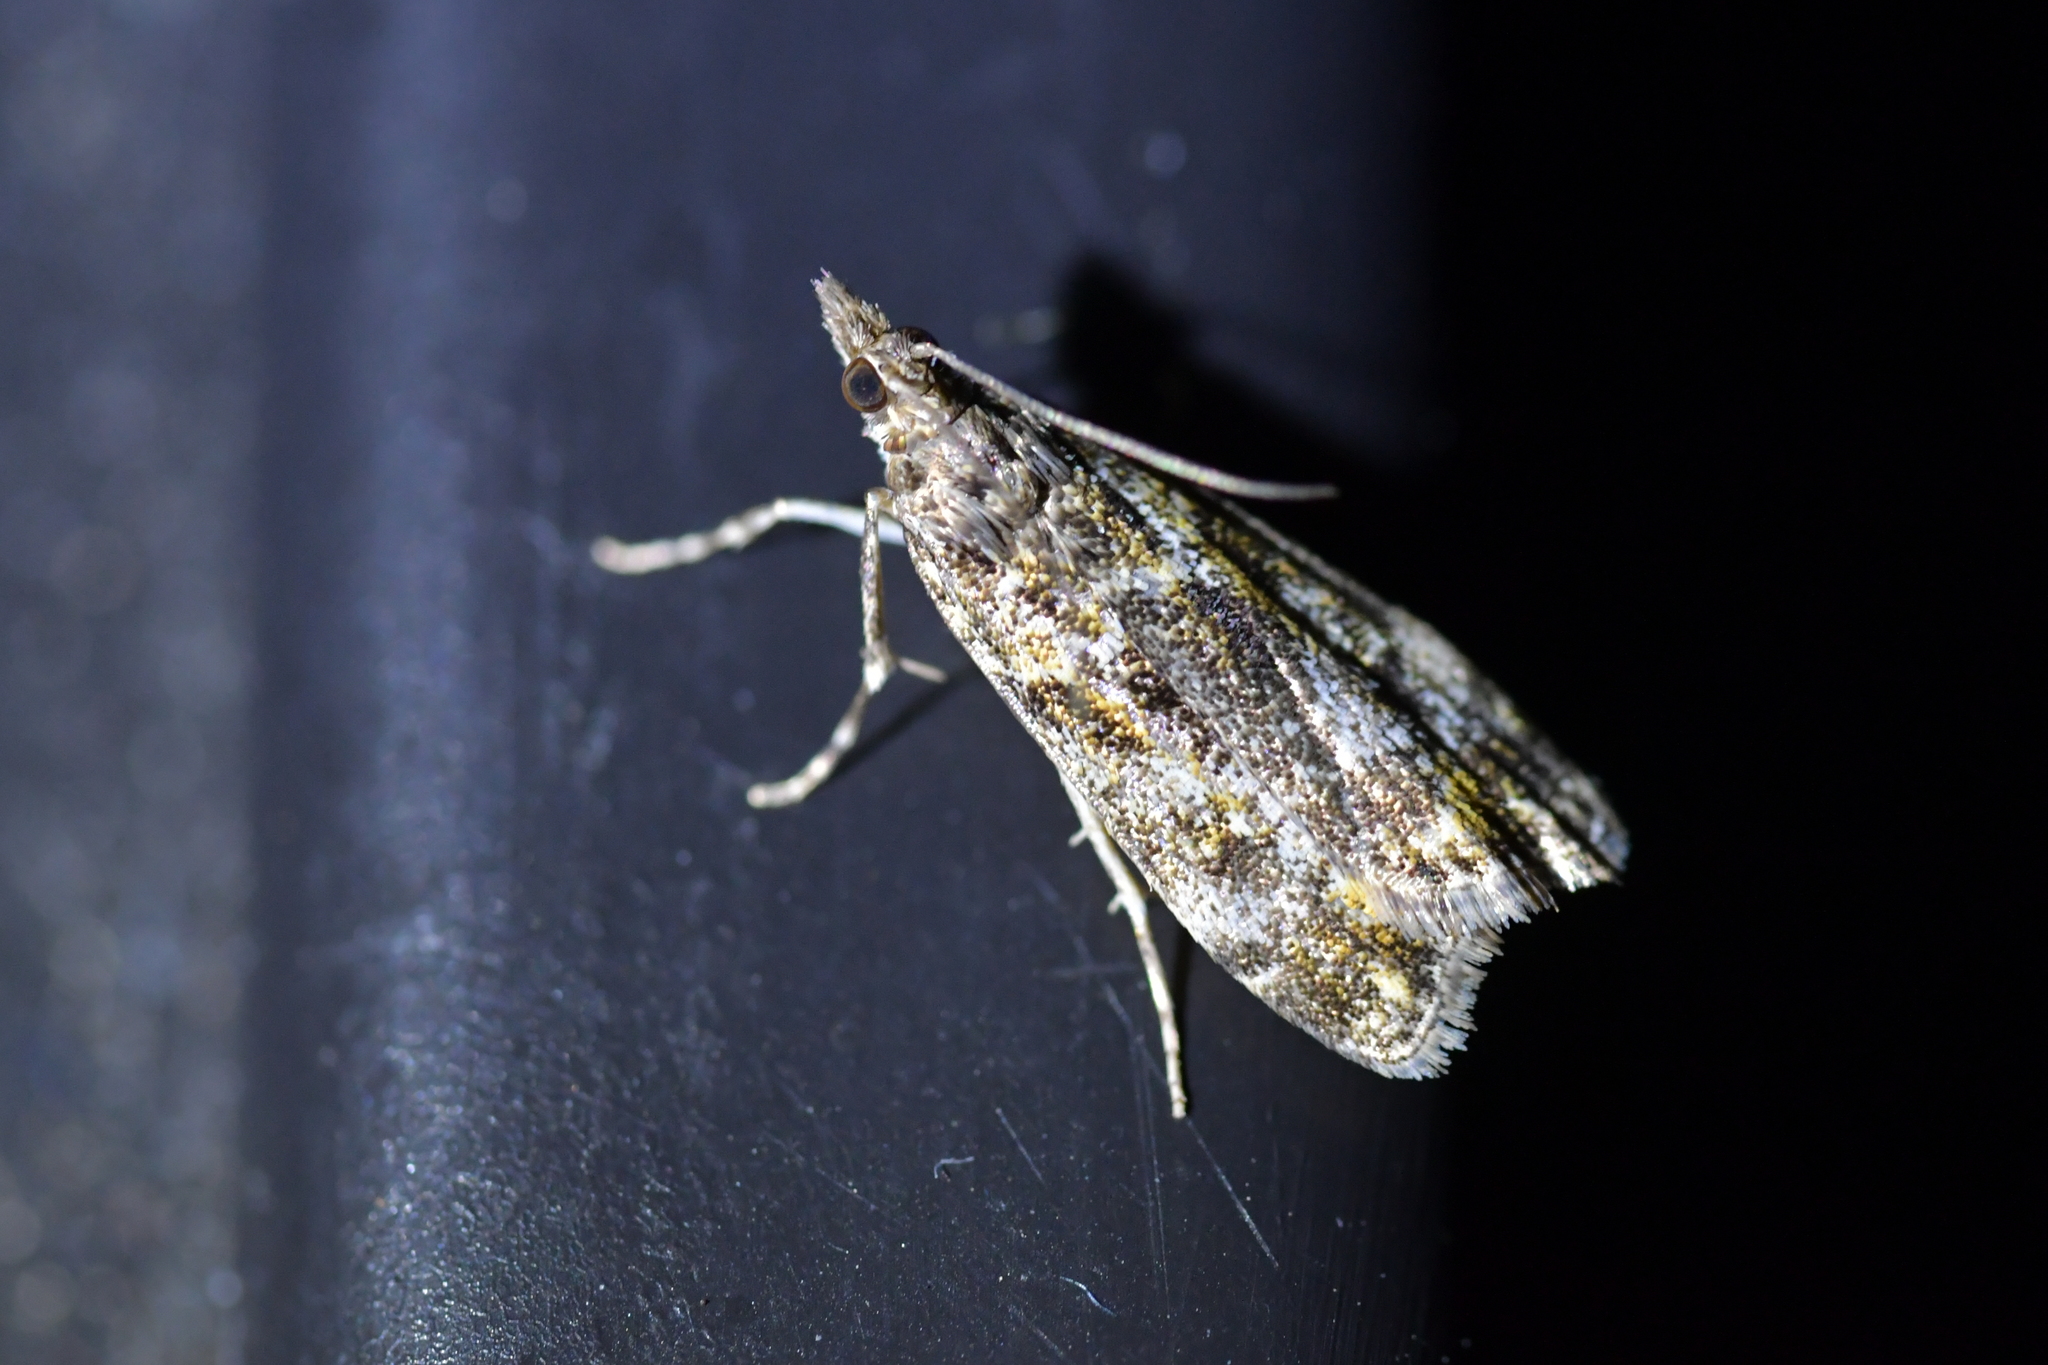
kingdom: Animalia
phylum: Arthropoda
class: Insecta
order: Lepidoptera
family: Crambidae
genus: Eudonia
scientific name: Eudonia minualis
